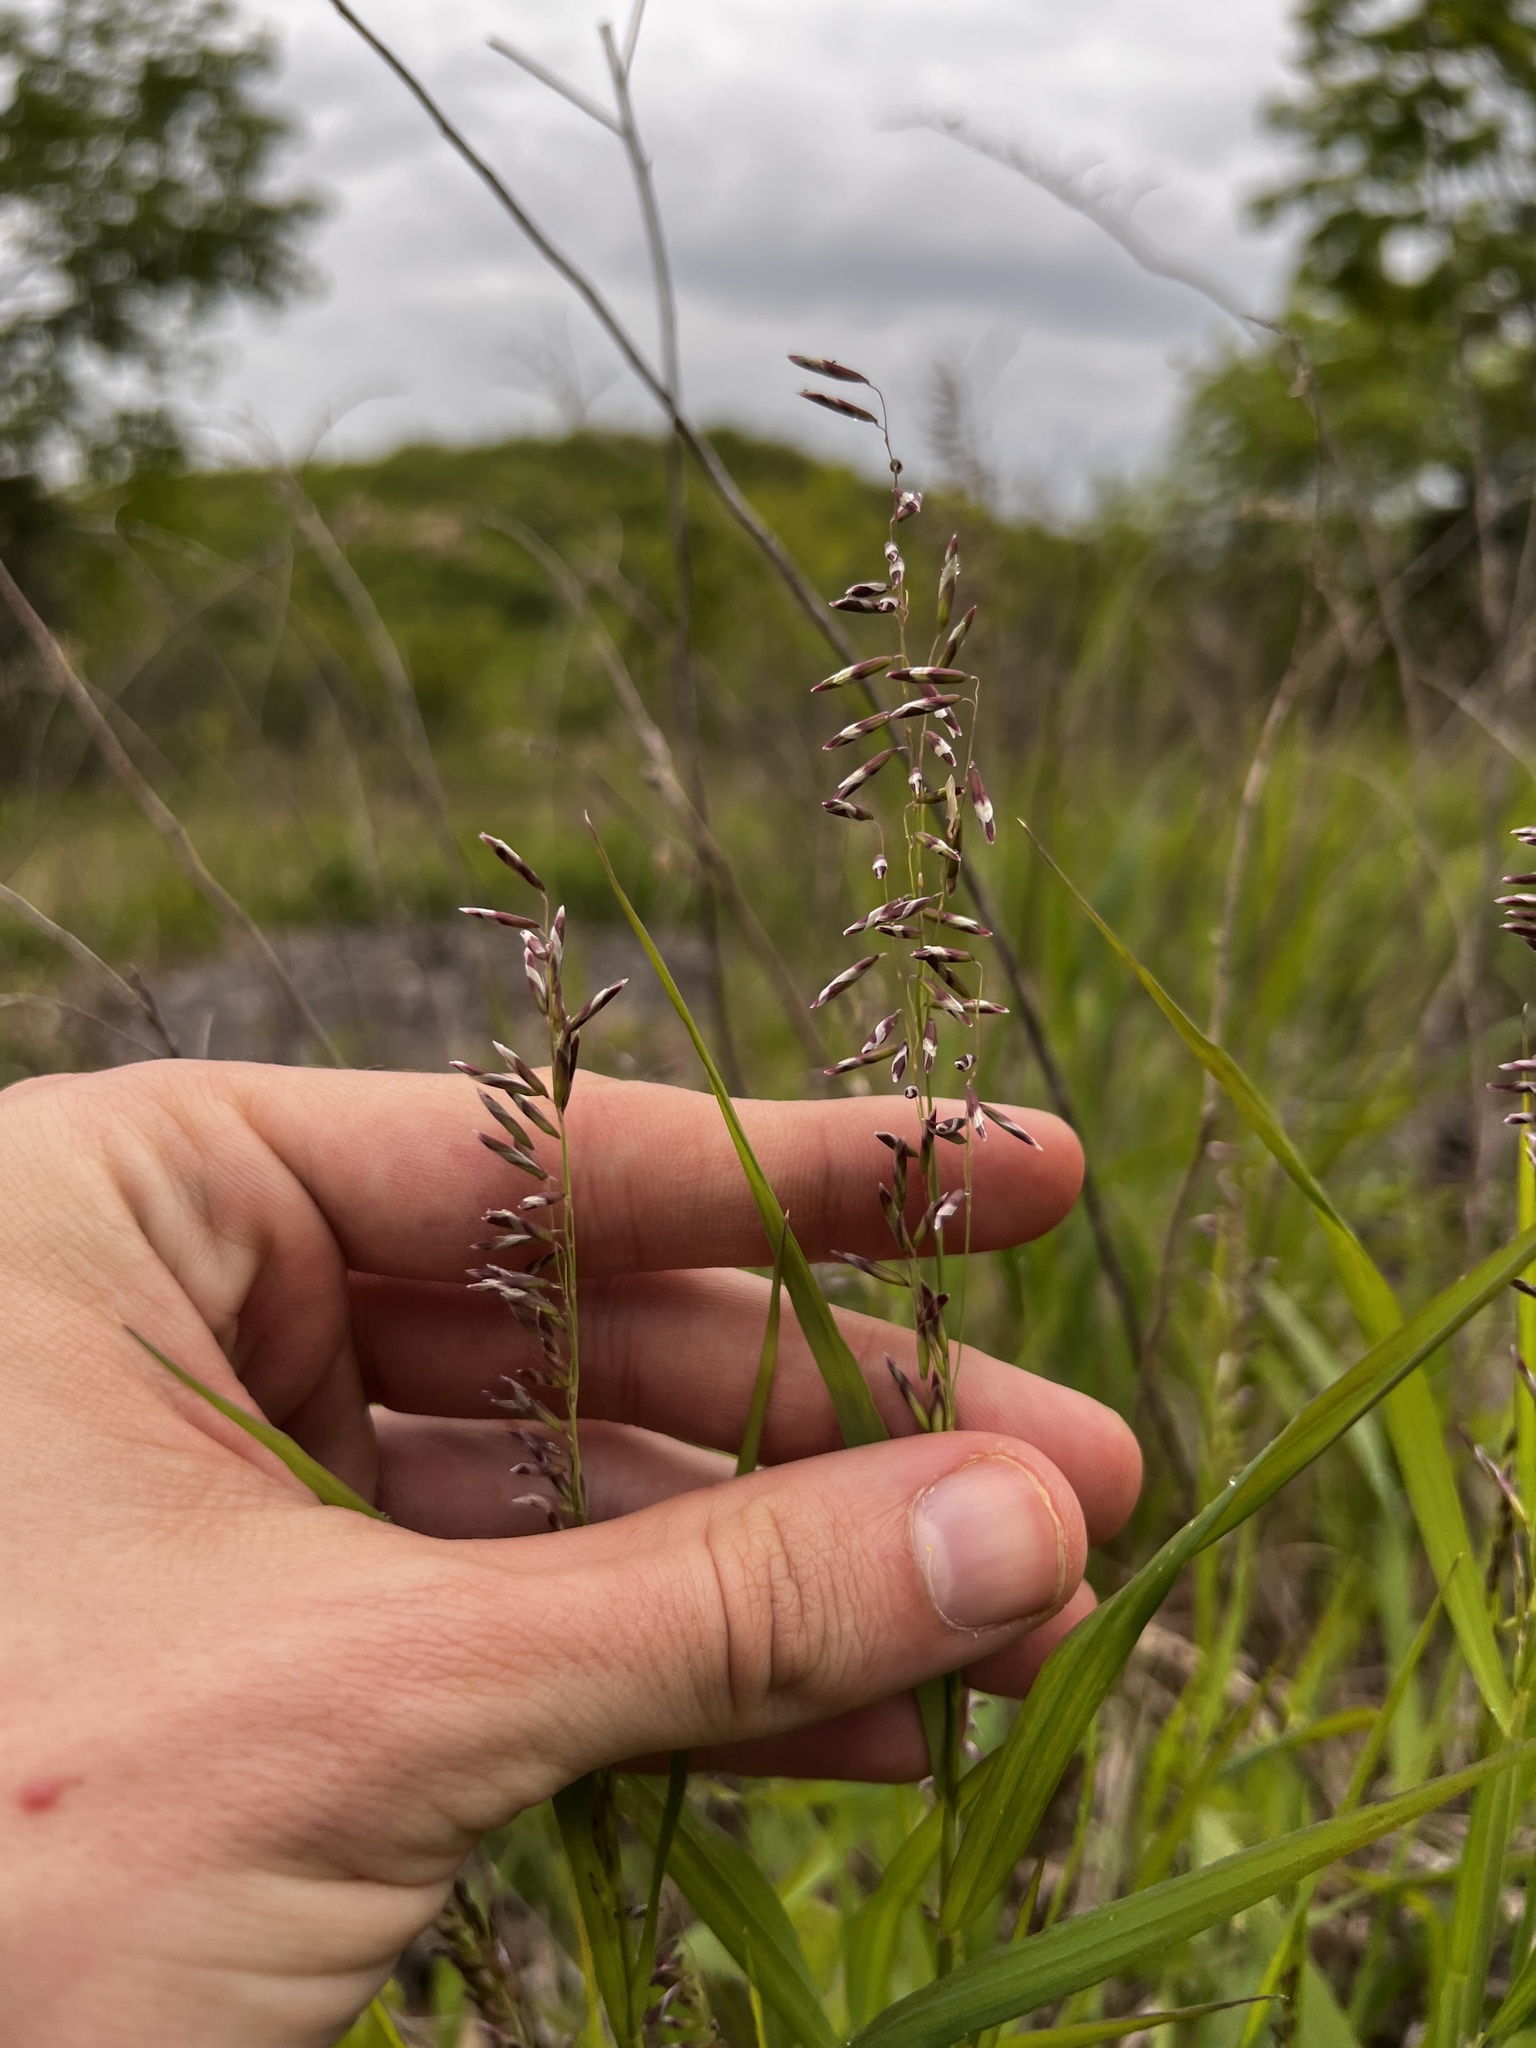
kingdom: Plantae
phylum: Tracheophyta
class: Liliopsida
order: Poales
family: Poaceae
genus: Melica
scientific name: Melica nitens
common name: Three-flower melic
